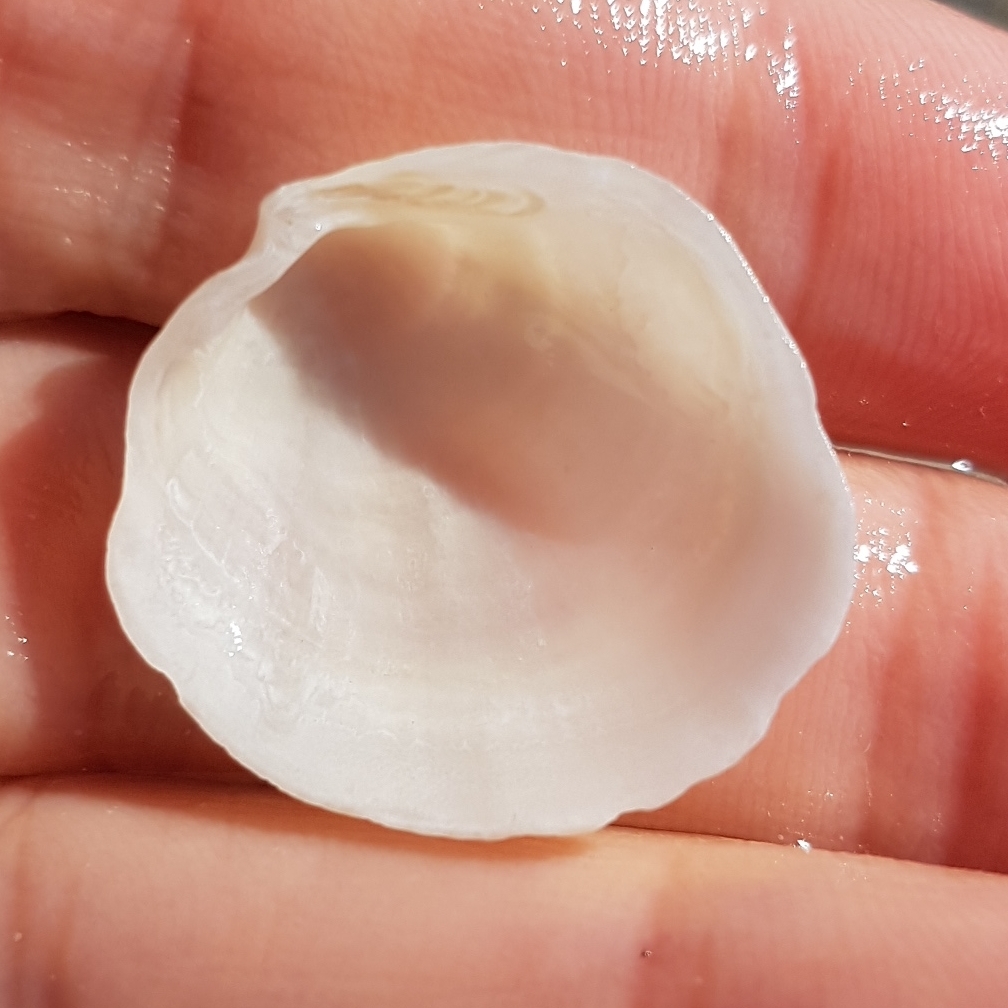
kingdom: Animalia
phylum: Mollusca
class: Bivalvia
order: Lucinida
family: Lucinidae
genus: Loripes
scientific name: Loripes orbiculatus
